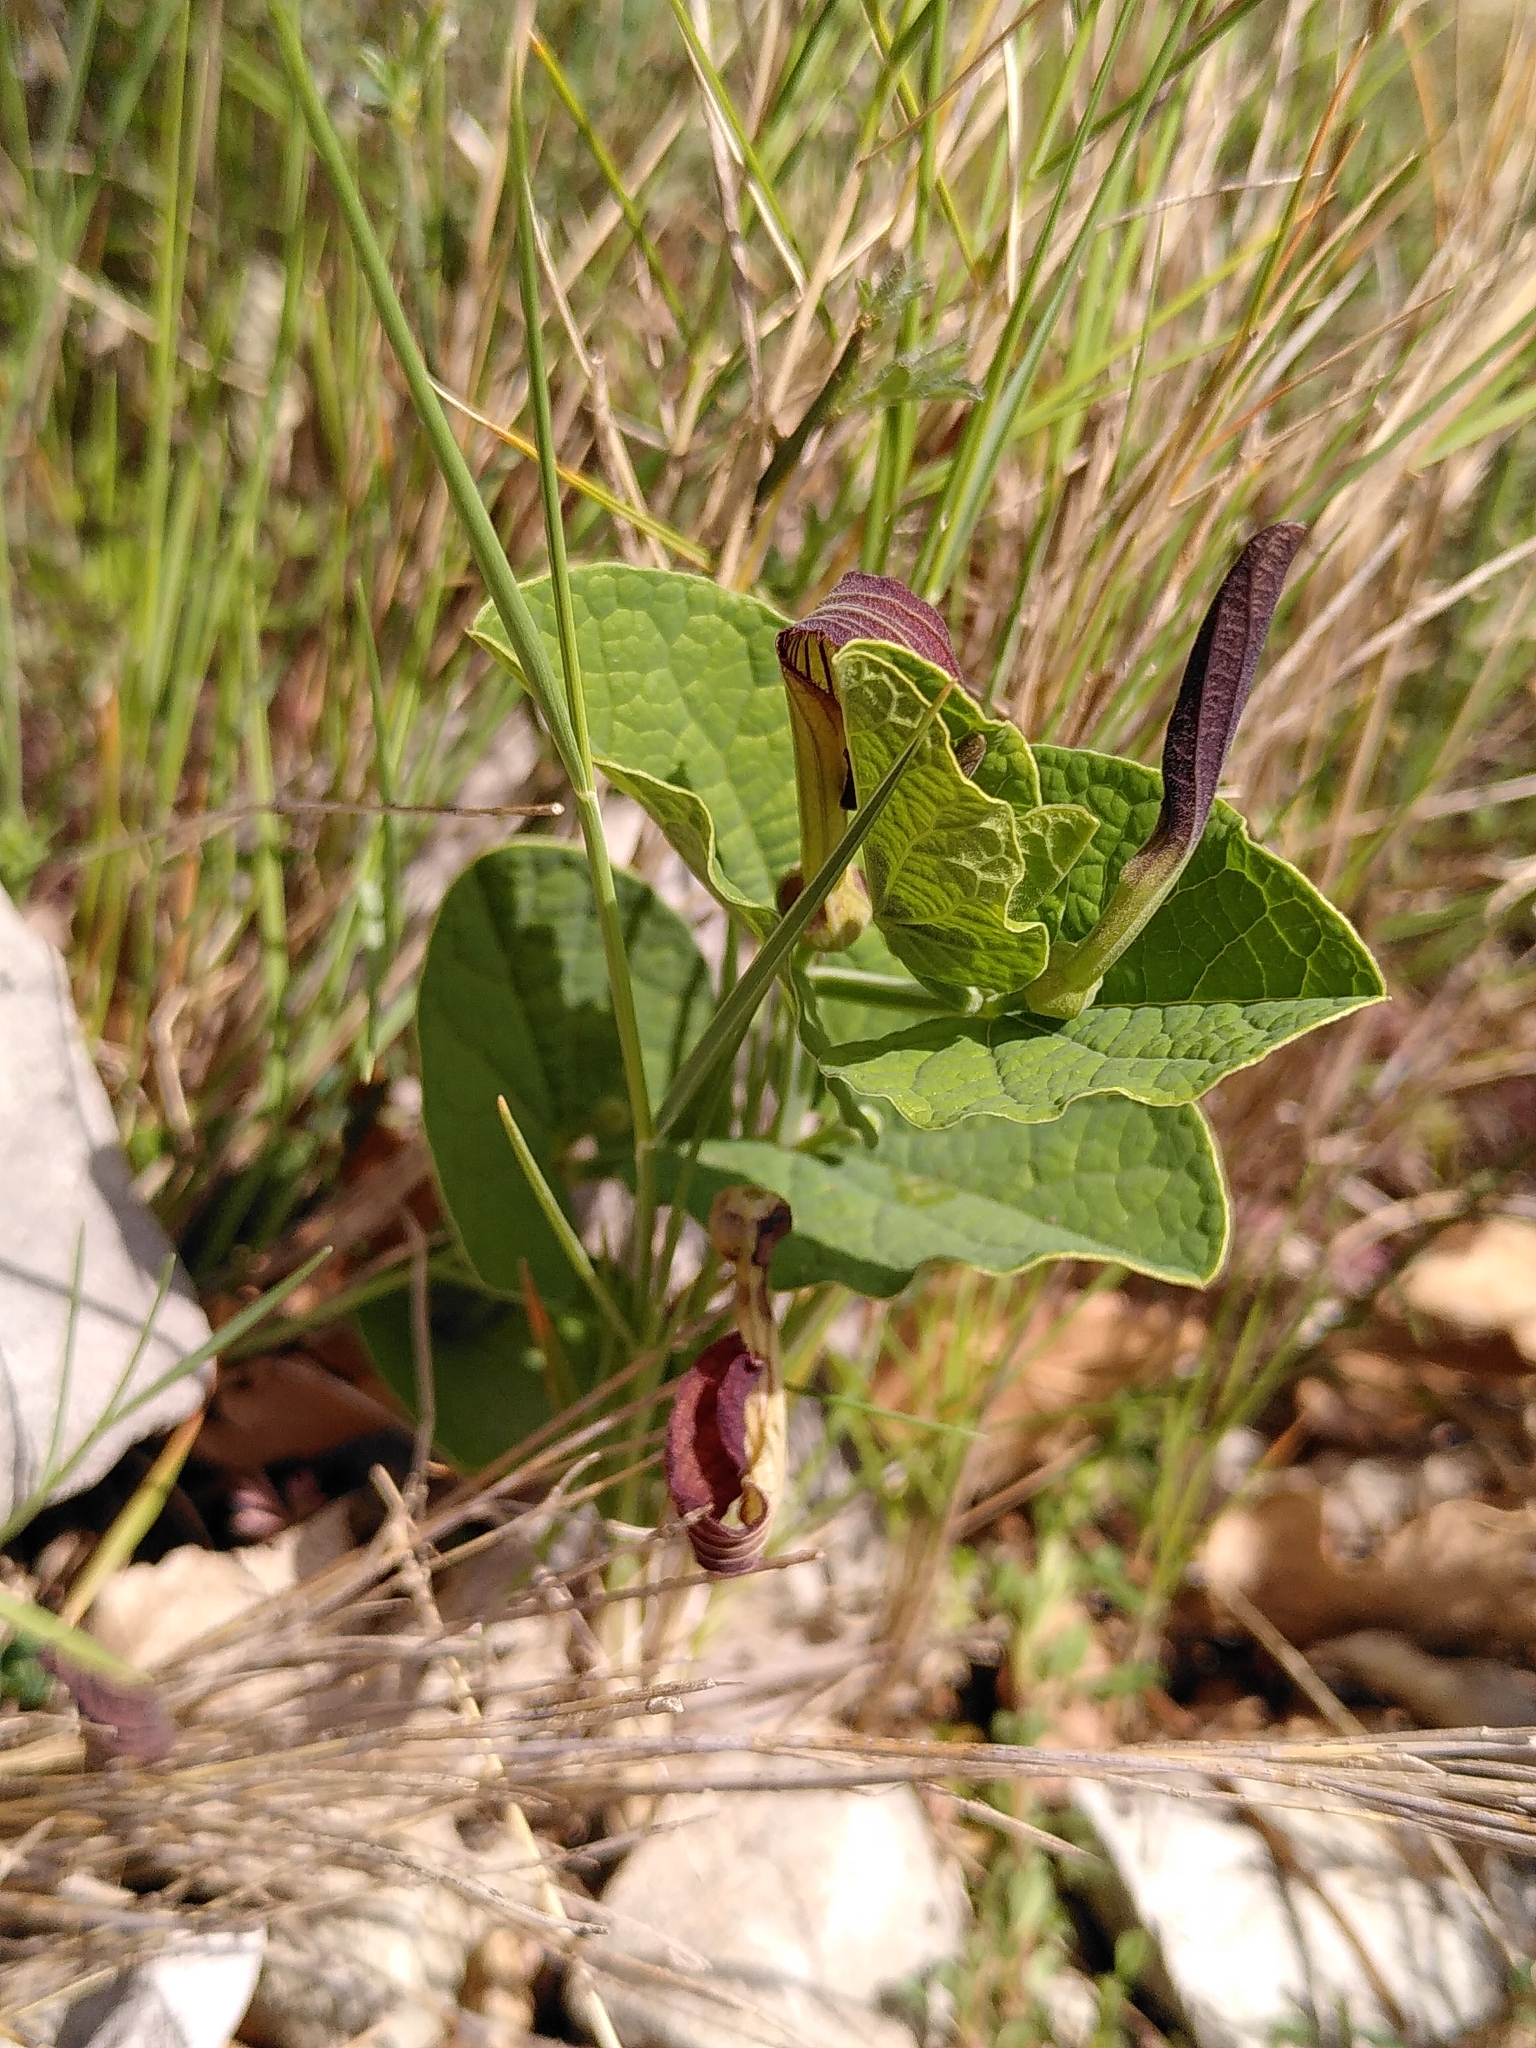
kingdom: Plantae
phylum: Tracheophyta
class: Magnoliopsida
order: Piperales
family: Aristolochiaceae
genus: Aristolochia
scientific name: Aristolochia rotunda
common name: Smearwort
